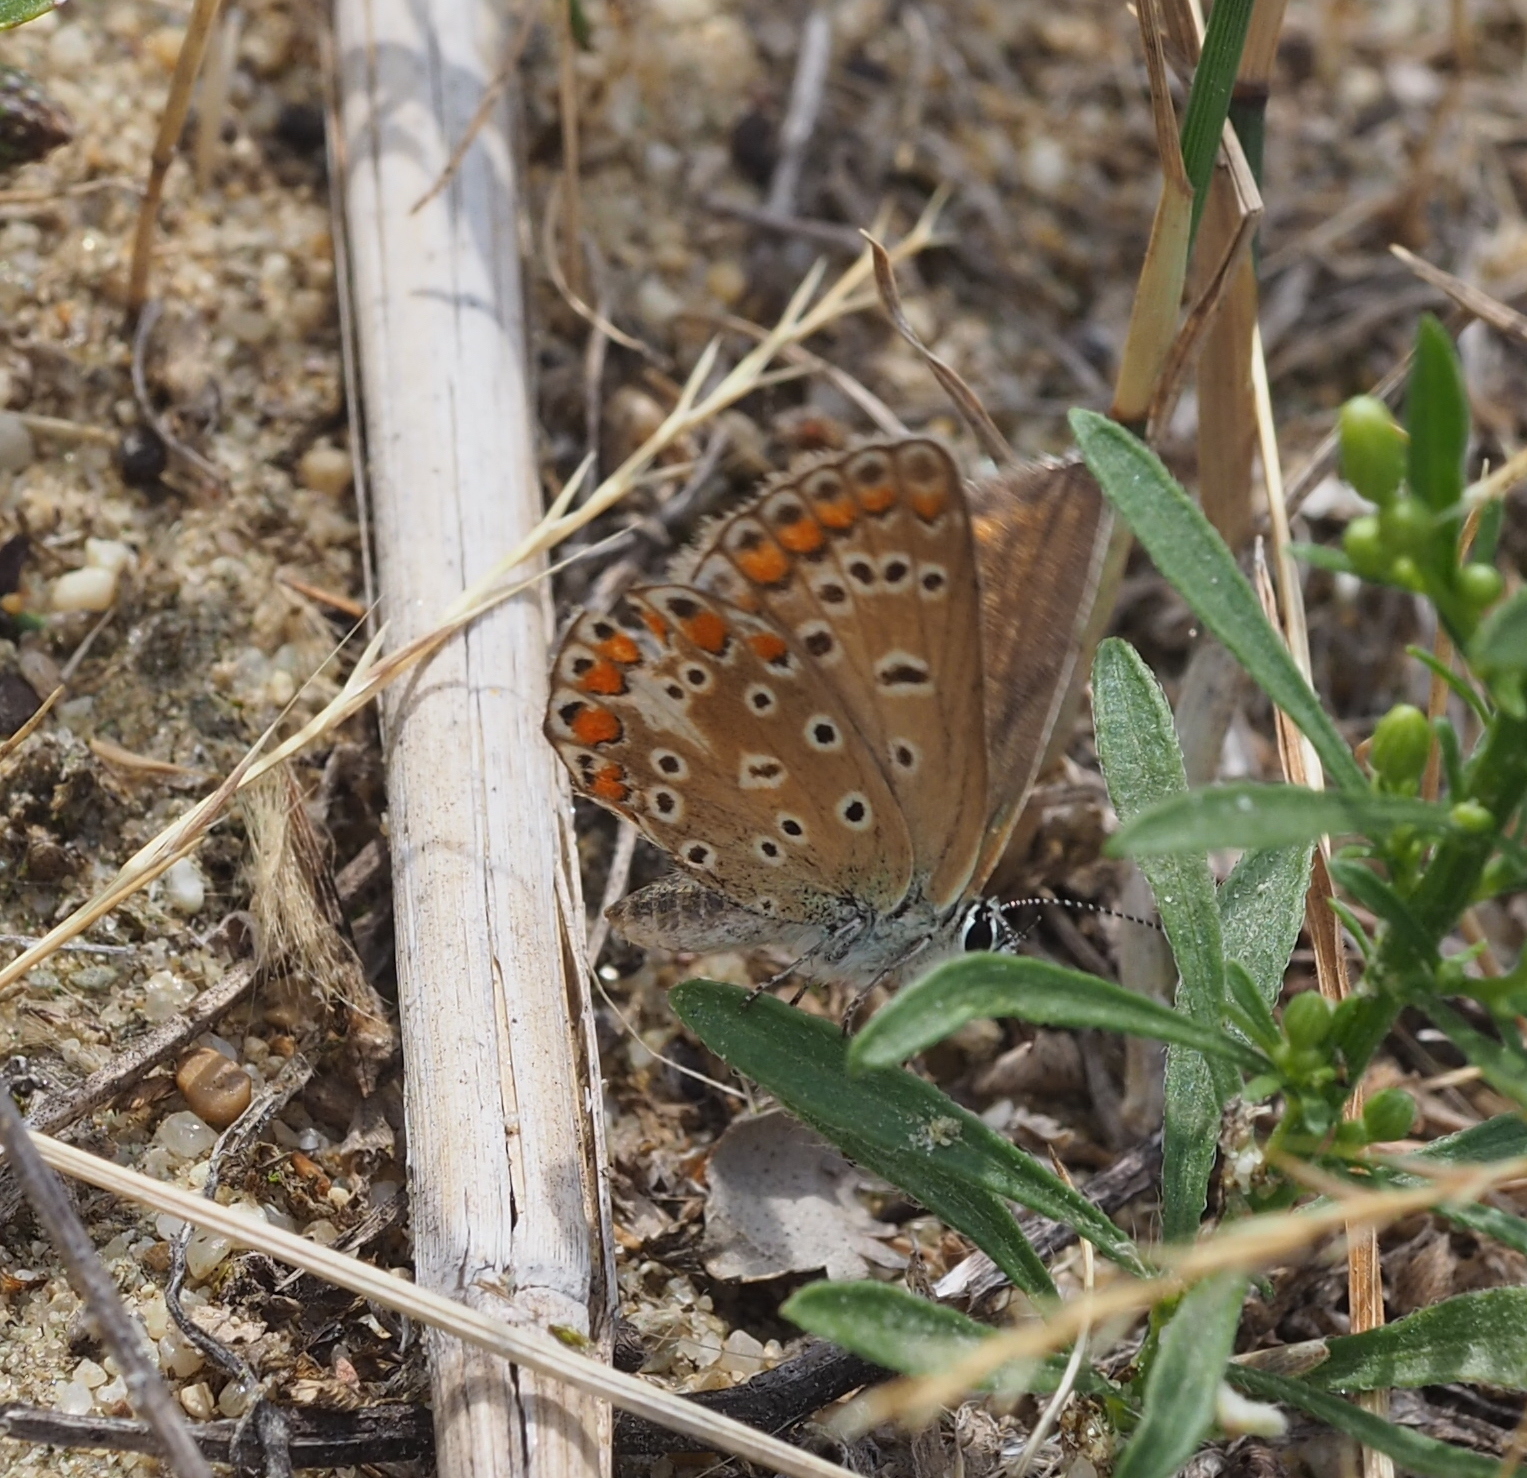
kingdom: Animalia
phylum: Arthropoda
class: Insecta
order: Lepidoptera
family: Lycaenidae
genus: Polyommatus
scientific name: Polyommatus icarus
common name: Common blue
